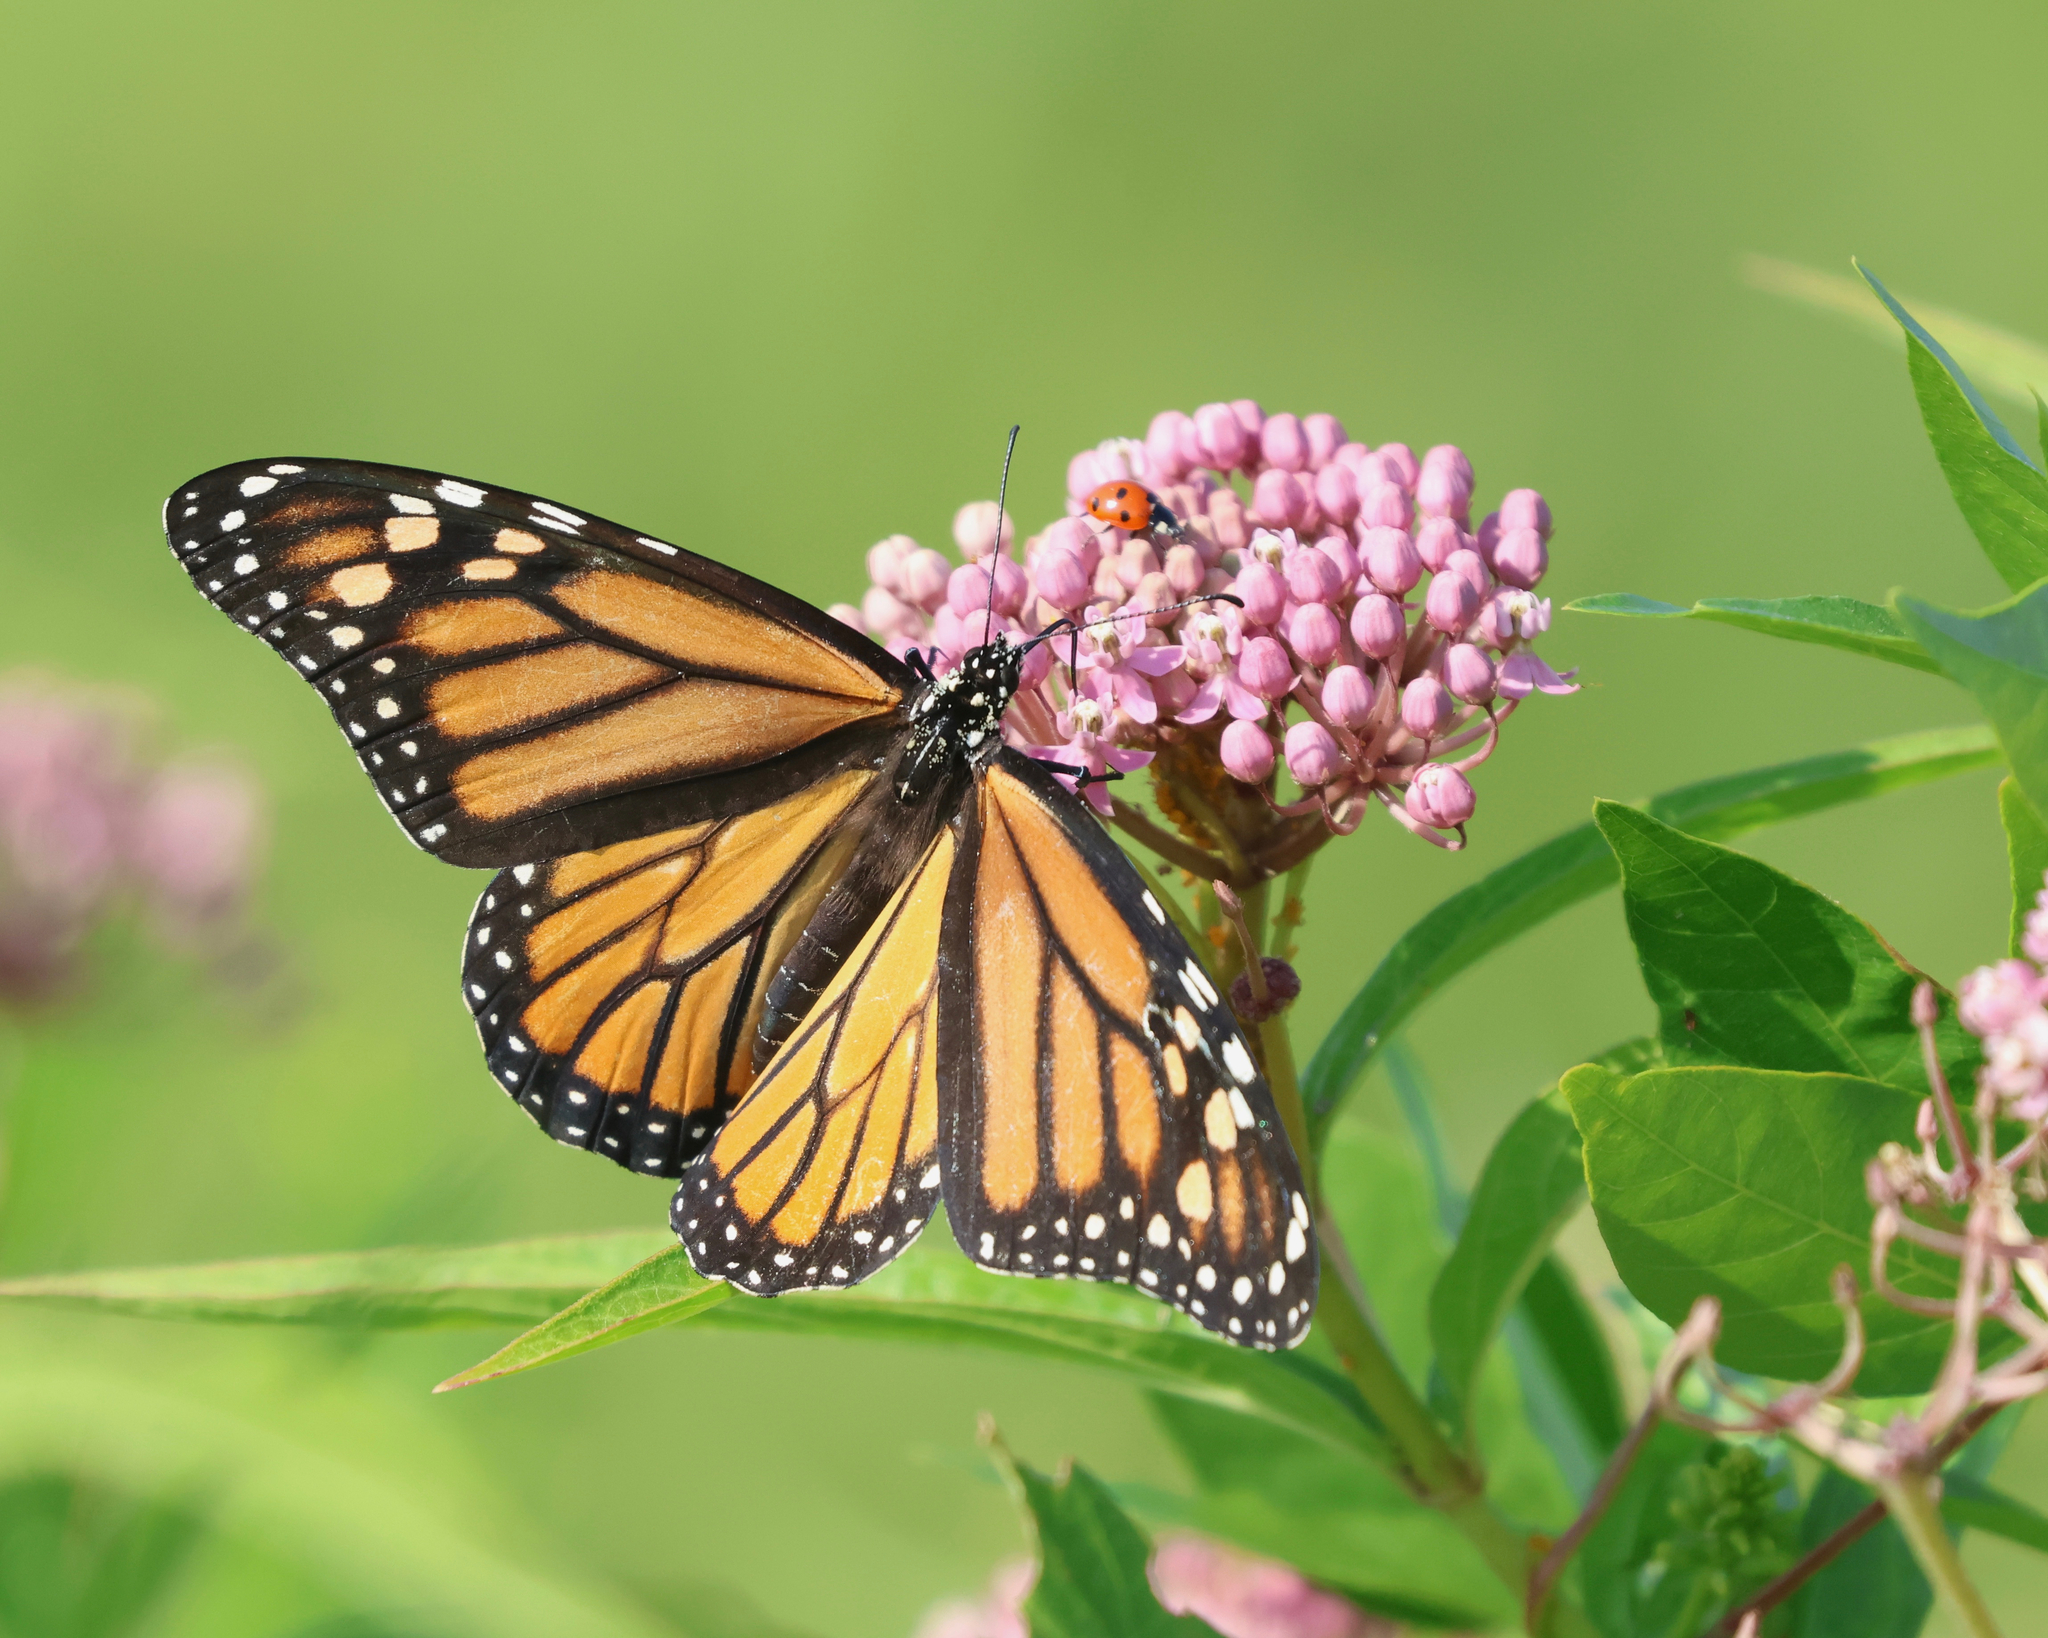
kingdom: Animalia
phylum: Arthropoda
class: Insecta
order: Lepidoptera
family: Nymphalidae
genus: Danaus
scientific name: Danaus plexippus
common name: Monarch
